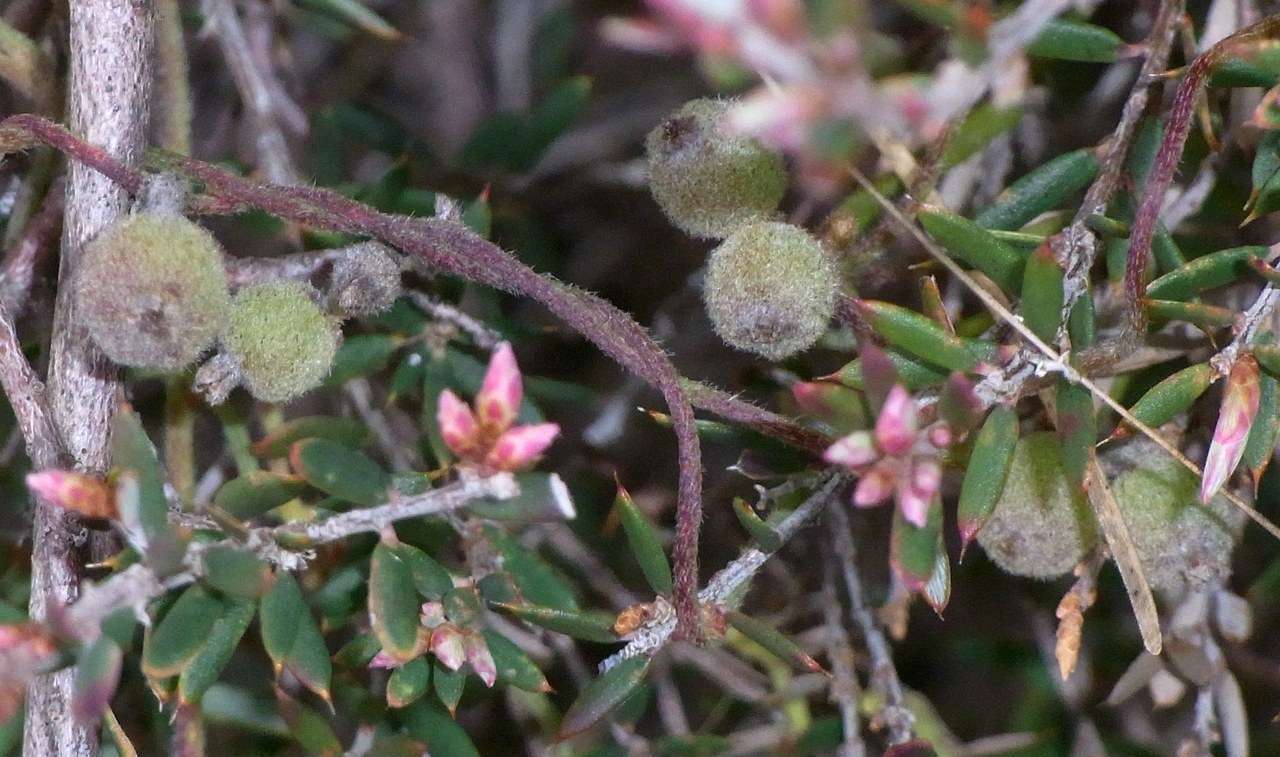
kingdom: Plantae
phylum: Tracheophyta
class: Magnoliopsida
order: Laurales
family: Lauraceae
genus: Cassytha
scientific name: Cassytha pubescens
